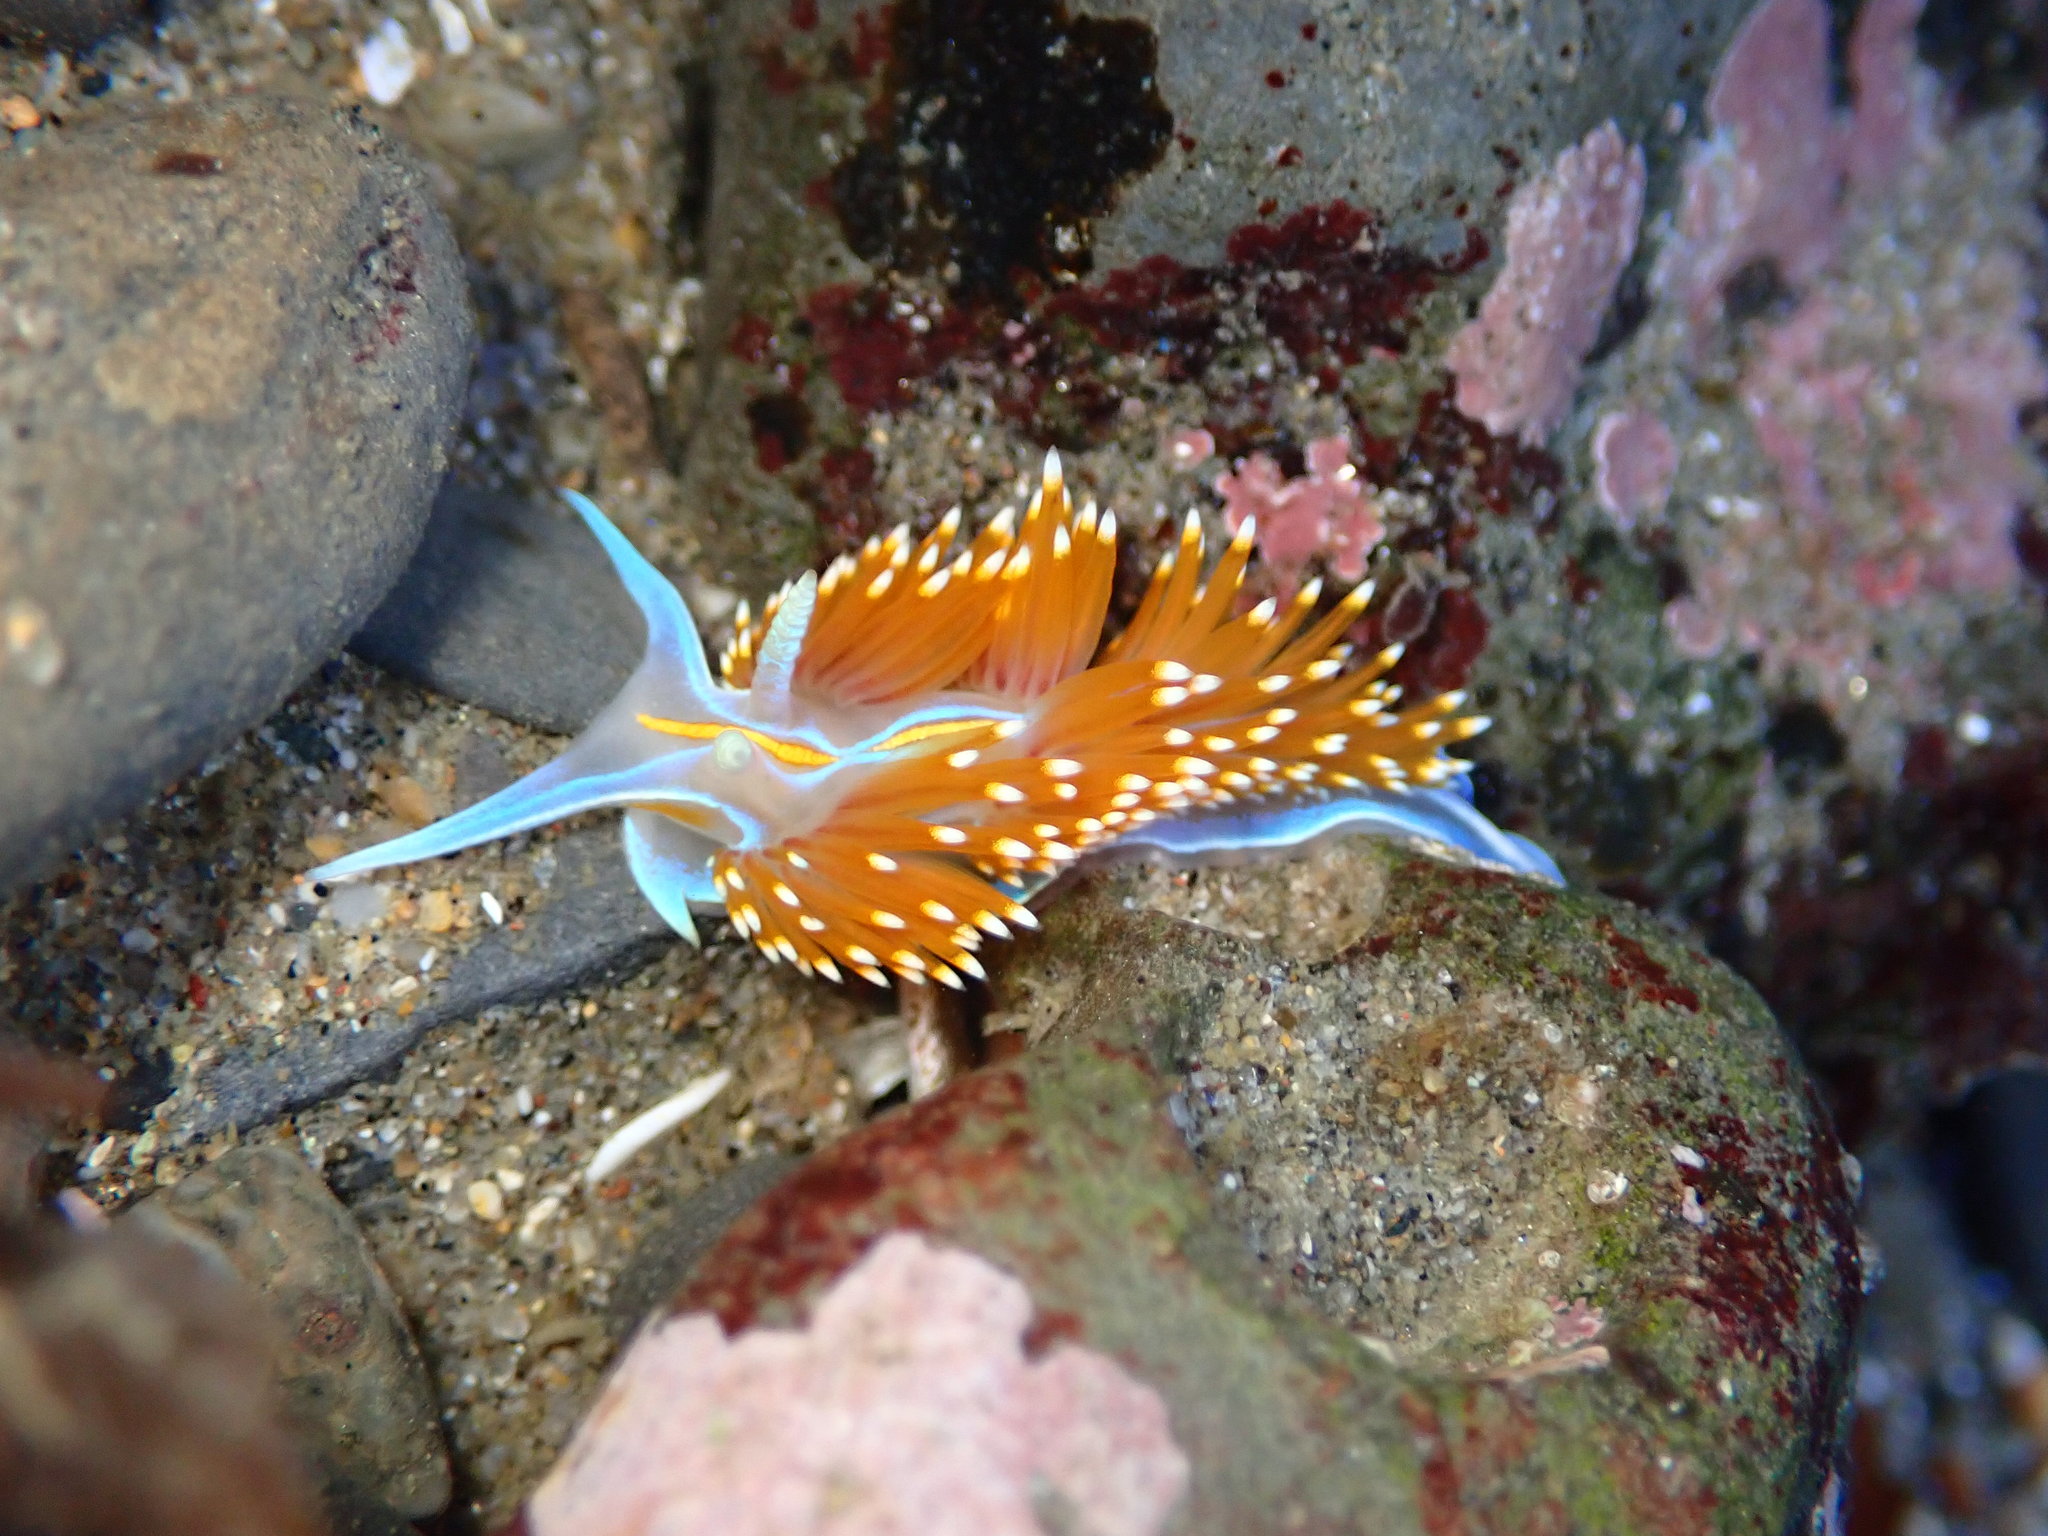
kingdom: Animalia
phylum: Mollusca
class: Gastropoda
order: Nudibranchia
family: Myrrhinidae
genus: Hermissenda
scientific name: Hermissenda opalescens
